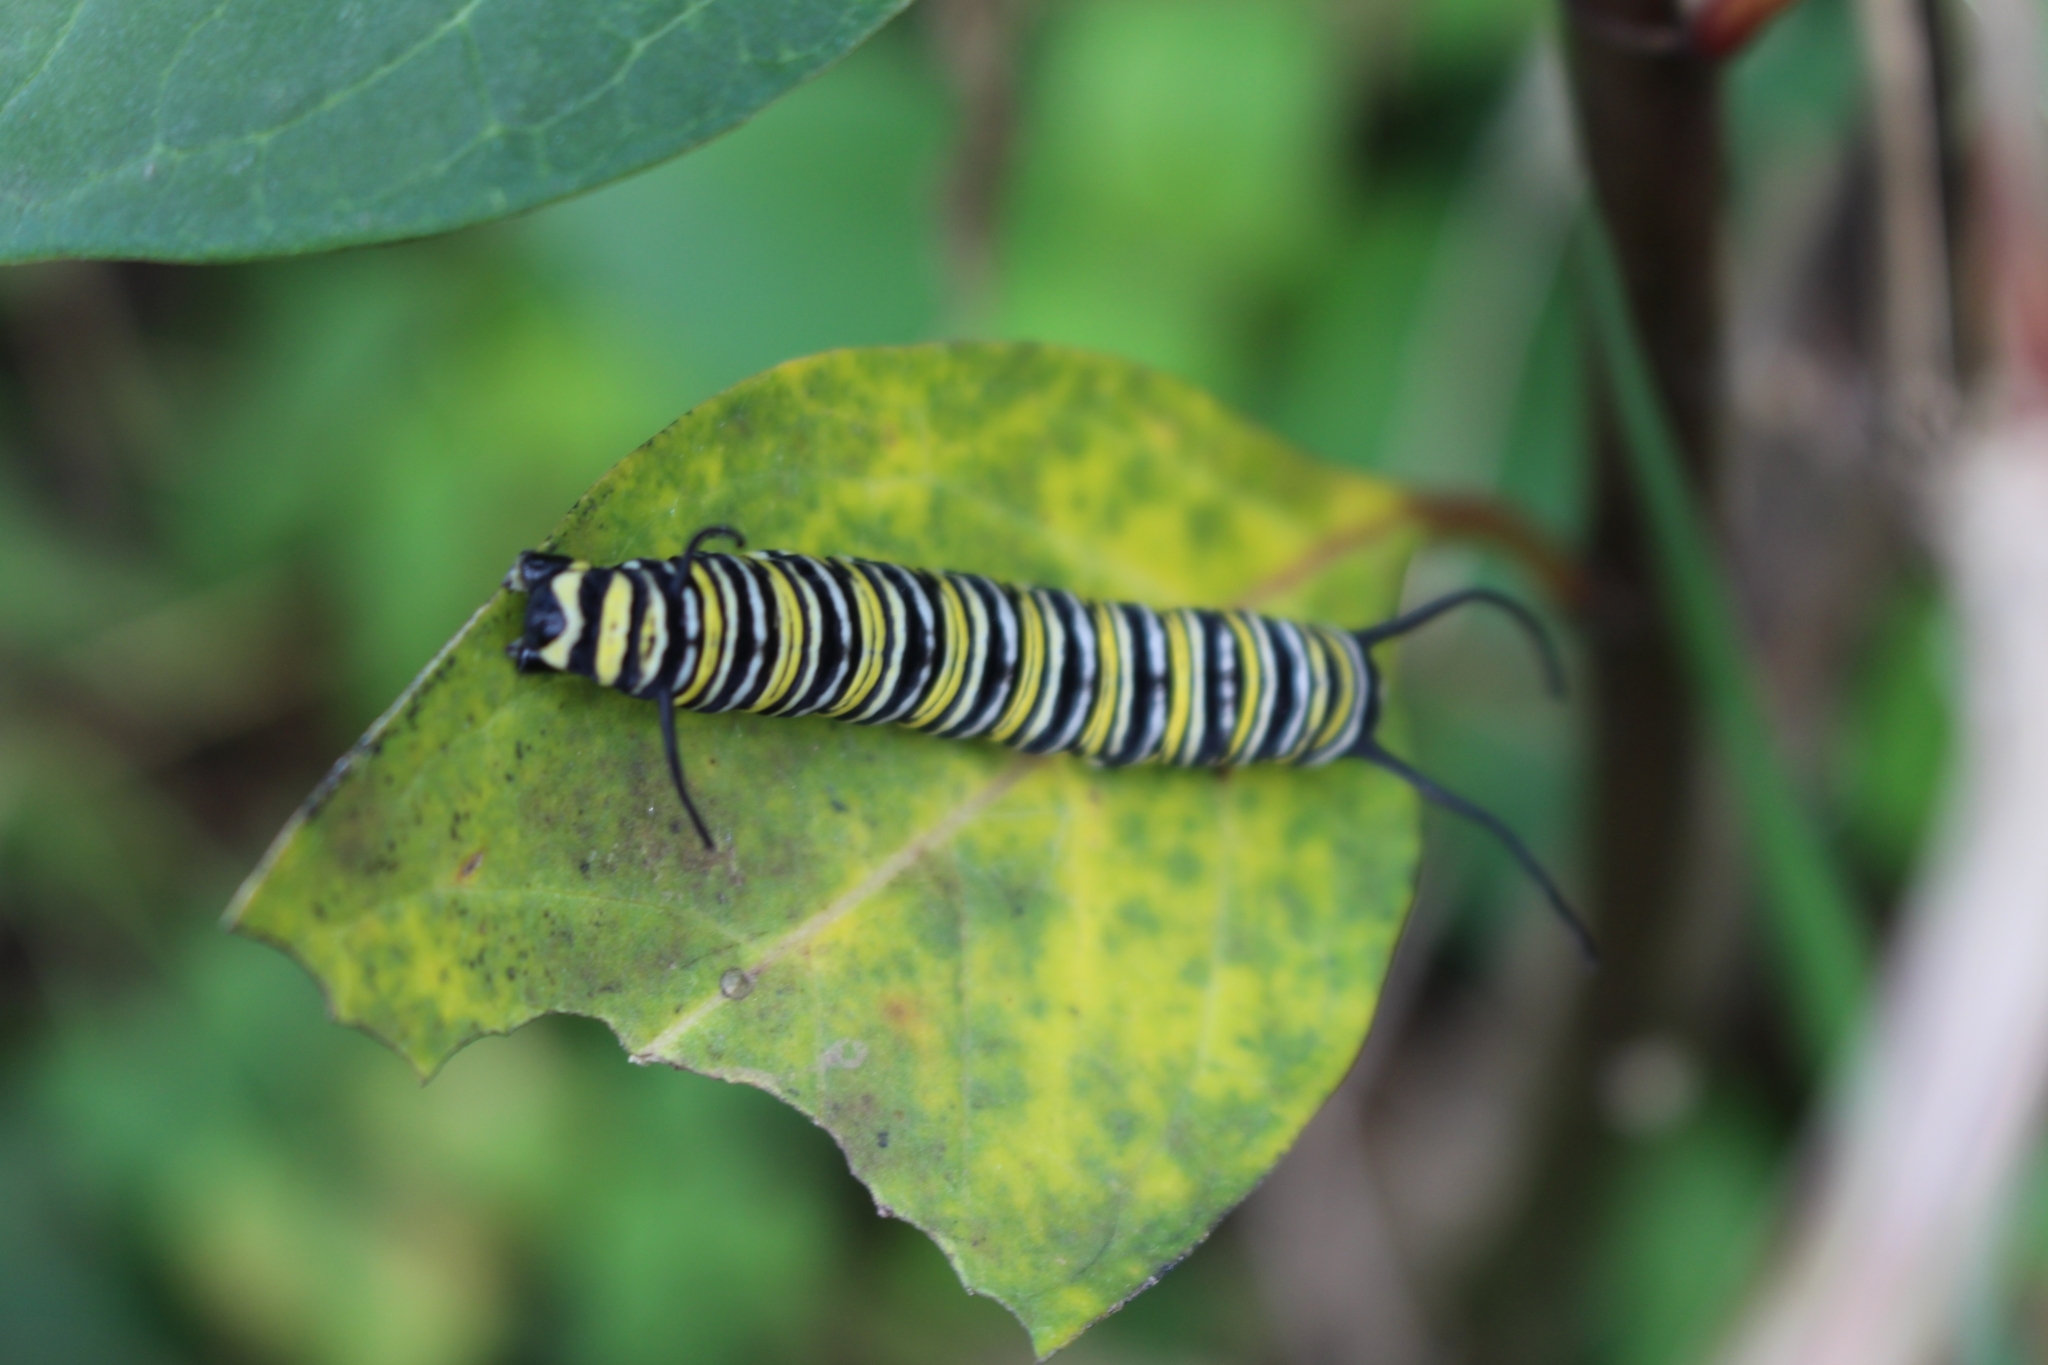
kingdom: Animalia
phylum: Arthropoda
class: Insecta
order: Lepidoptera
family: Nymphalidae
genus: Danaus
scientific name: Danaus plexippus
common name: Monarch
